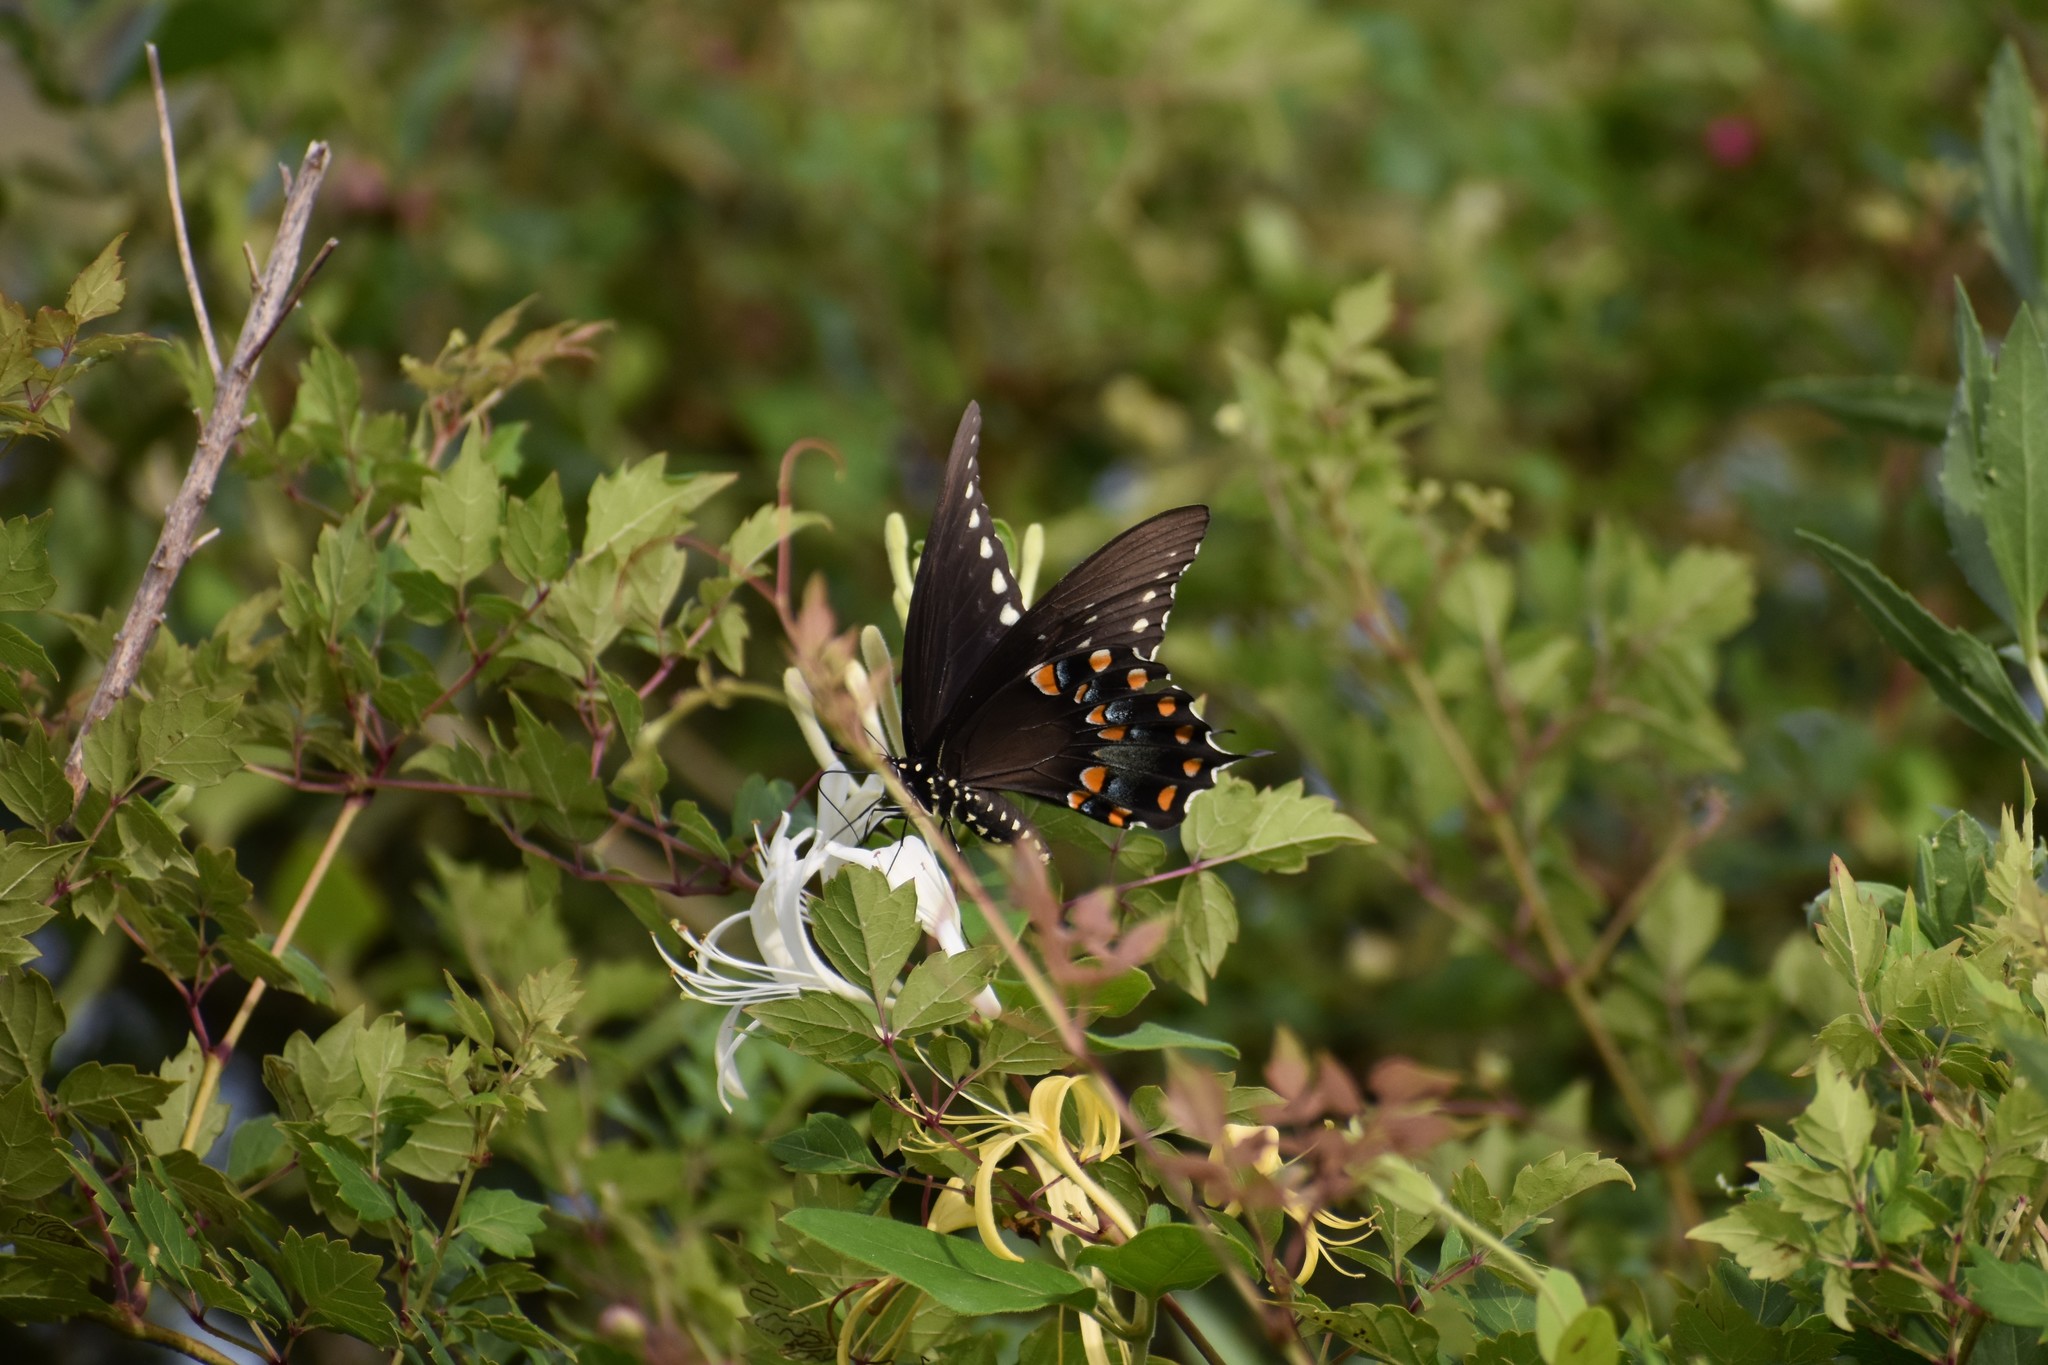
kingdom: Animalia
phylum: Arthropoda
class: Insecta
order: Lepidoptera
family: Papilionidae
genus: Papilio
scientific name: Papilio troilus
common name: Spicebush swallowtail
